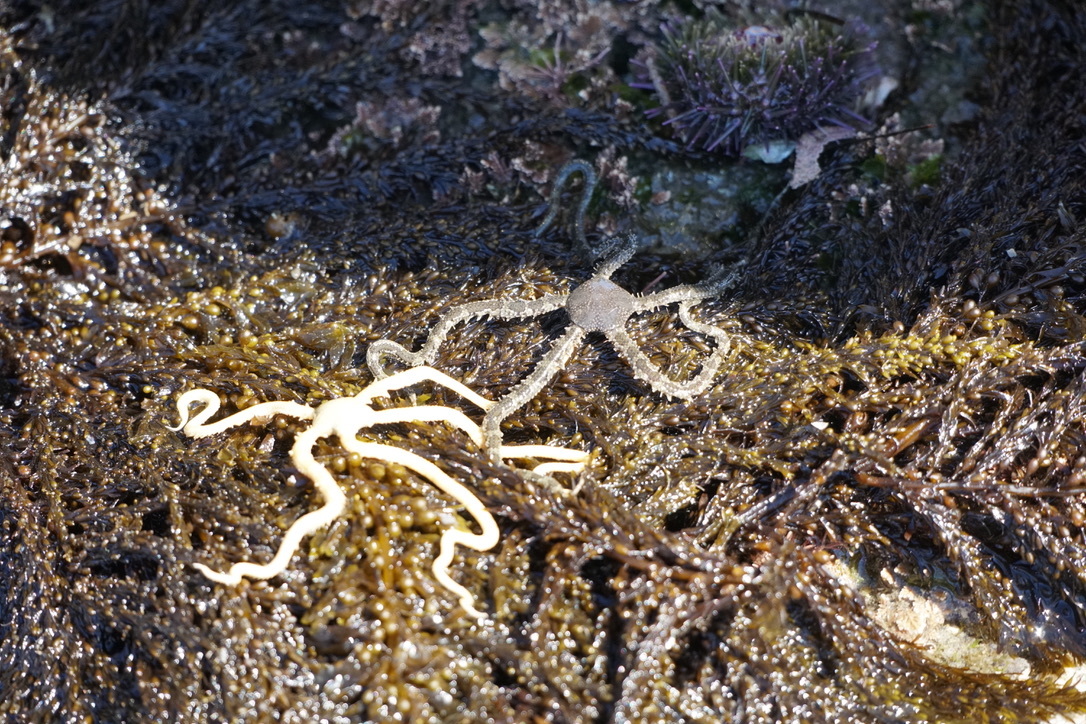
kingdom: Animalia
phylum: Echinodermata
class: Ophiuroidea
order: Amphilepidida
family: Ophionereididae
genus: Ophionereis
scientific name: Ophionereis annulata
